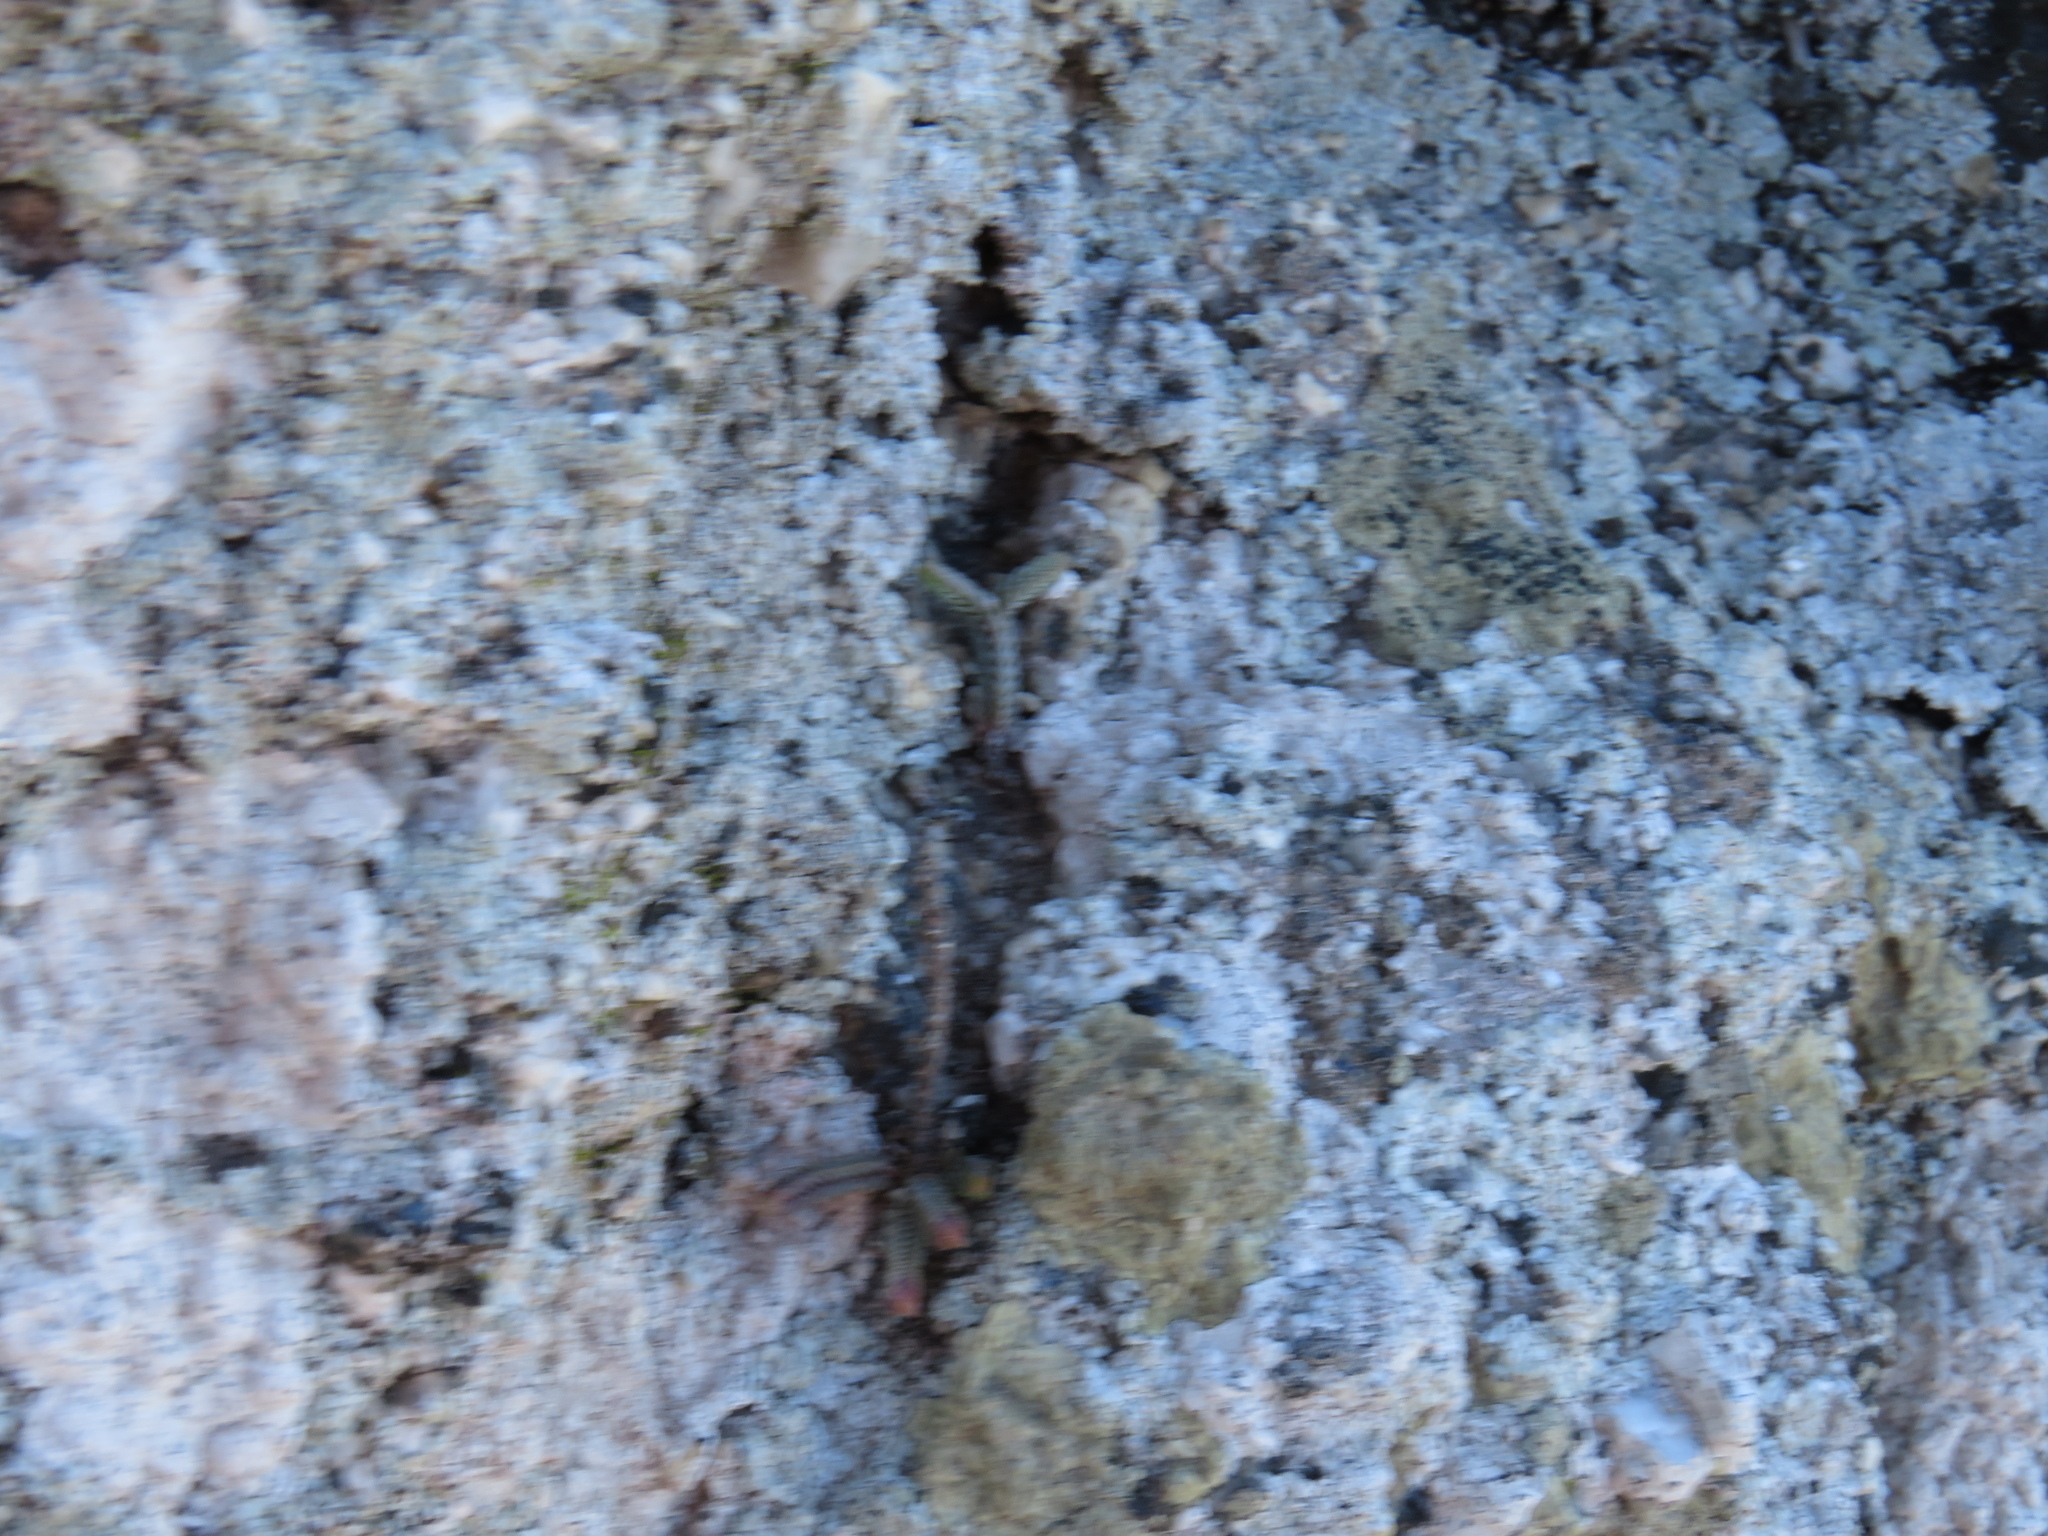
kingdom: Plantae
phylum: Tracheophyta
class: Magnoliopsida
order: Saxifragales
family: Crassulaceae
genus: Crassula
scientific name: Crassula muscosa
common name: Toy-cypress
